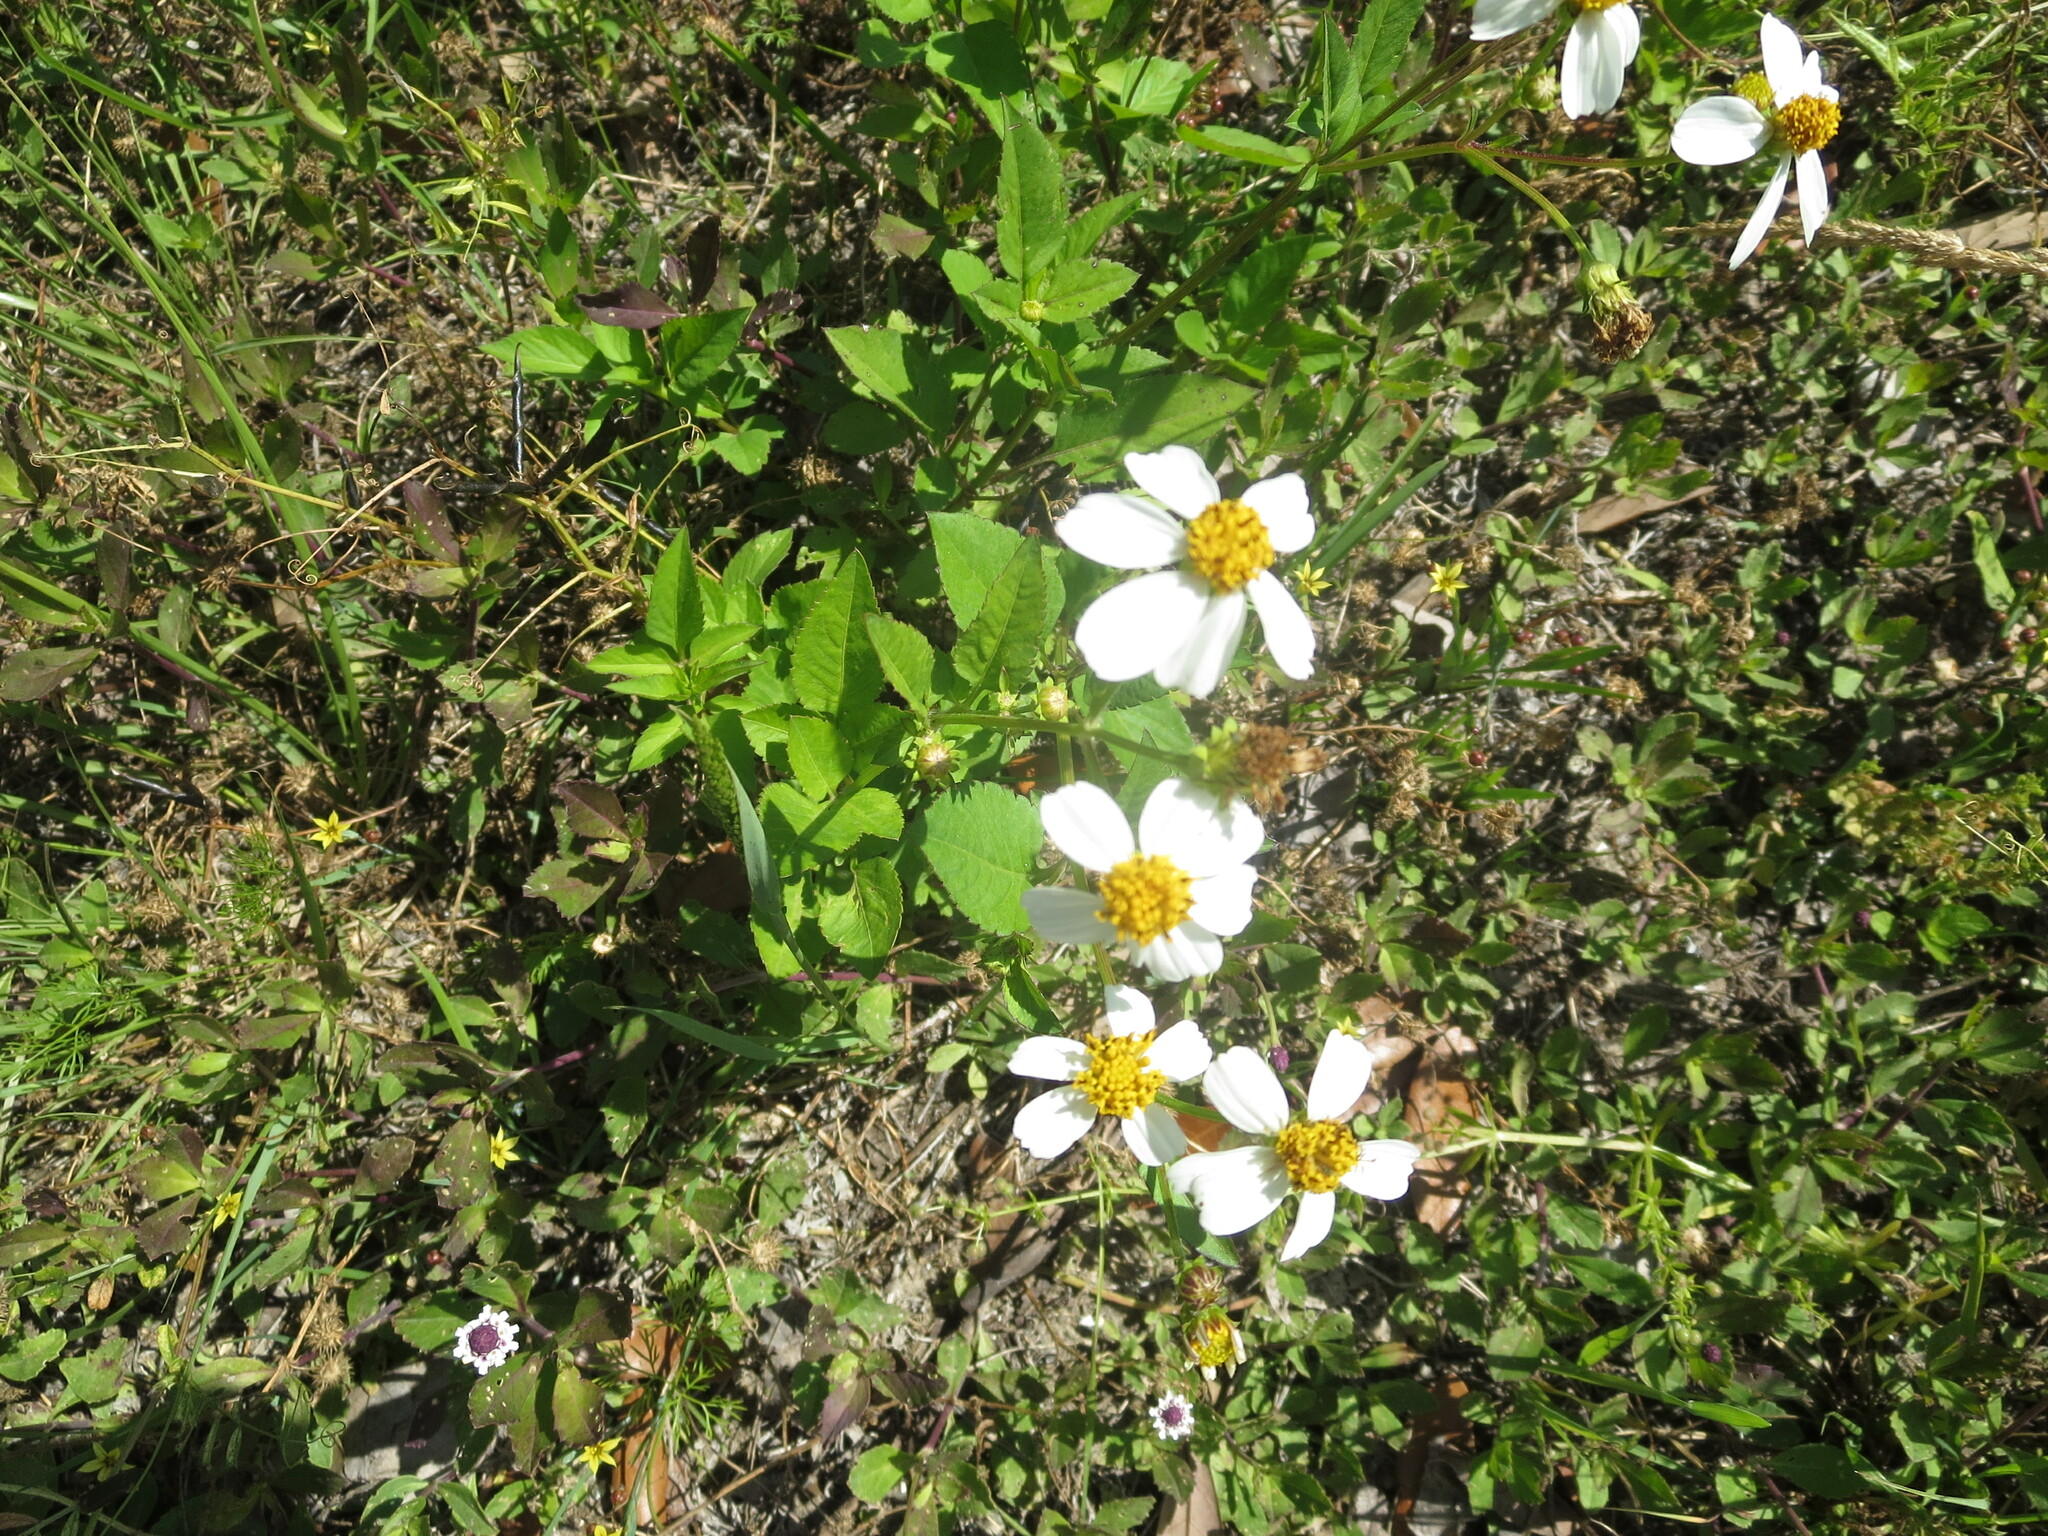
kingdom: Plantae
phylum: Tracheophyta
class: Magnoliopsida
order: Asterales
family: Asteraceae
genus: Bidens
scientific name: Bidens alba
